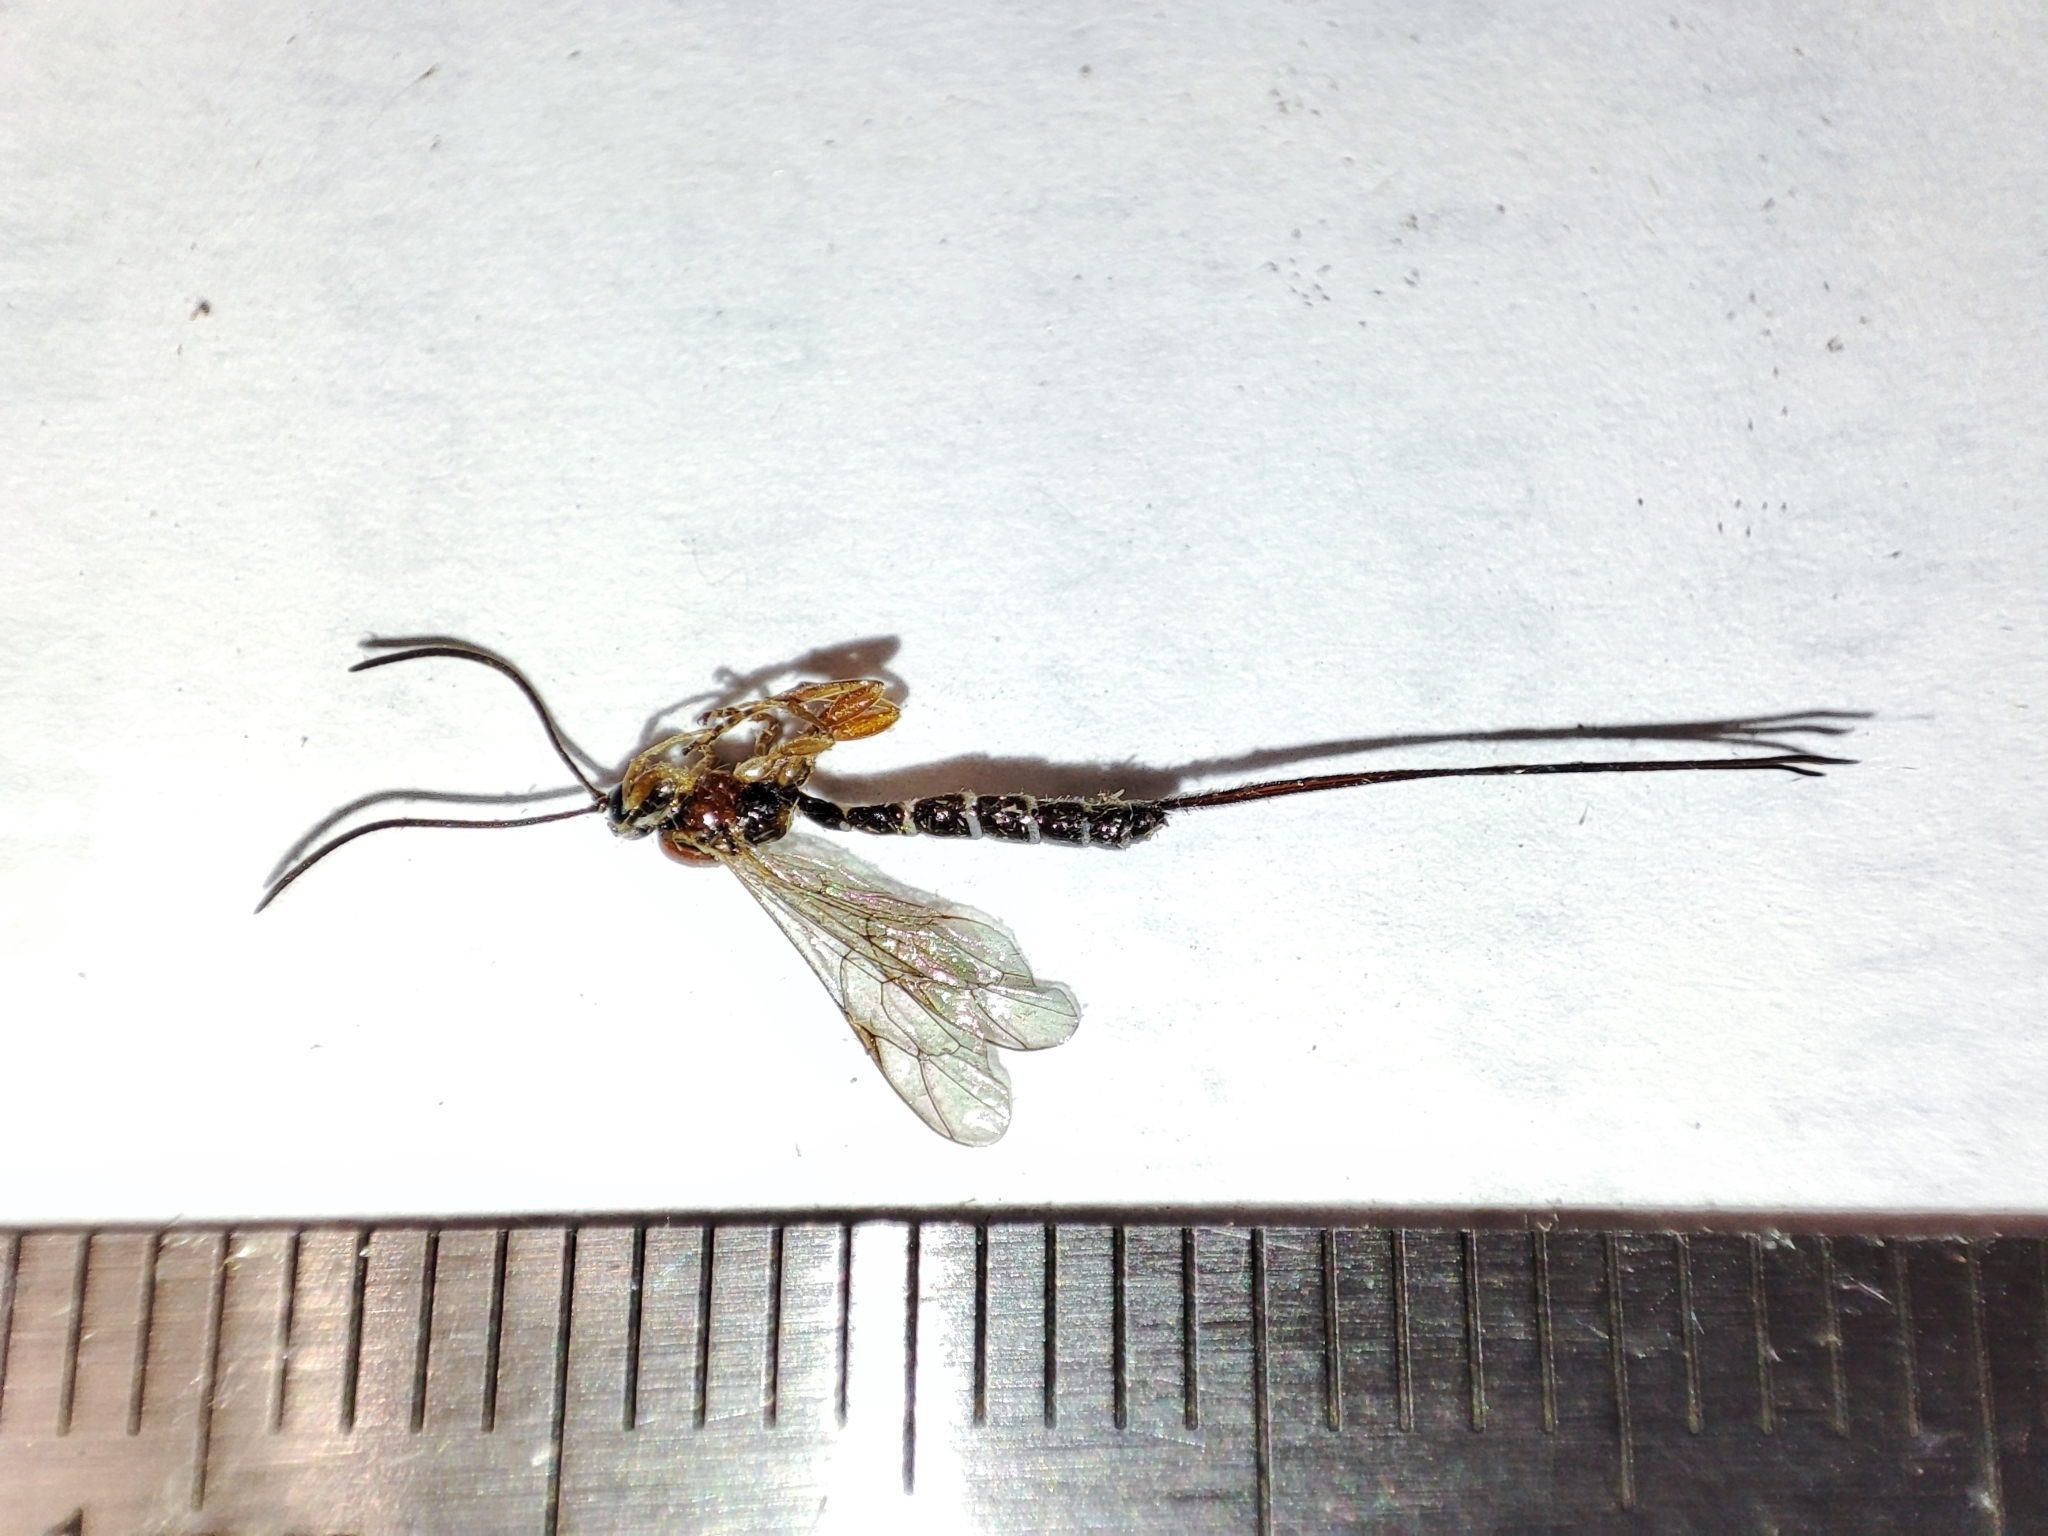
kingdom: Animalia
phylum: Arthropoda
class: Insecta
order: Hymenoptera
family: Ichneumonidae
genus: Perithous
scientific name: Perithous septemcinctorius
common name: Ichneumonid wasp
